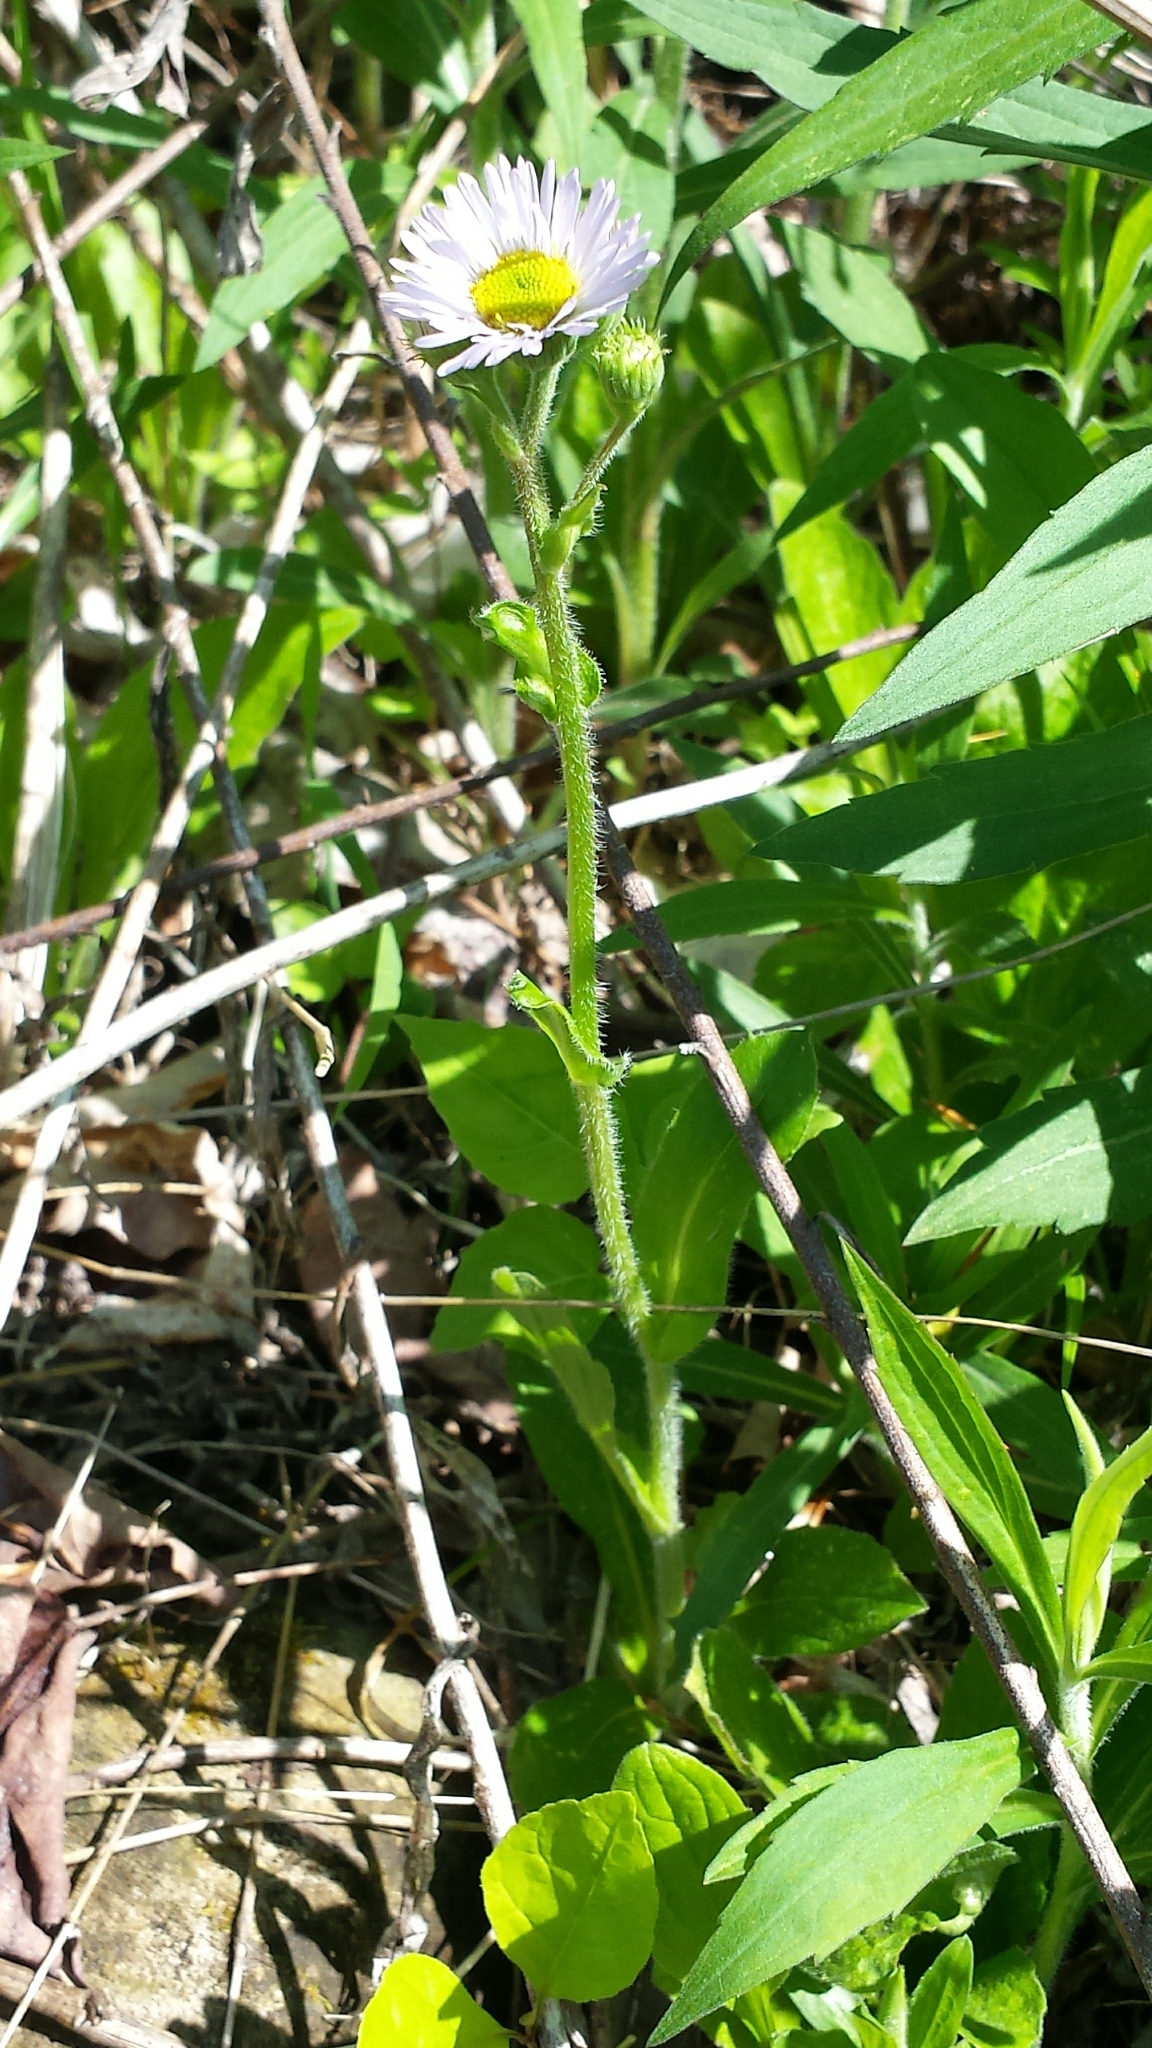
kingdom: Plantae
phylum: Tracheophyta
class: Magnoliopsida
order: Asterales
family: Asteraceae
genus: Erigeron
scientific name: Erigeron pulchellus
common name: Hairy fleabane
